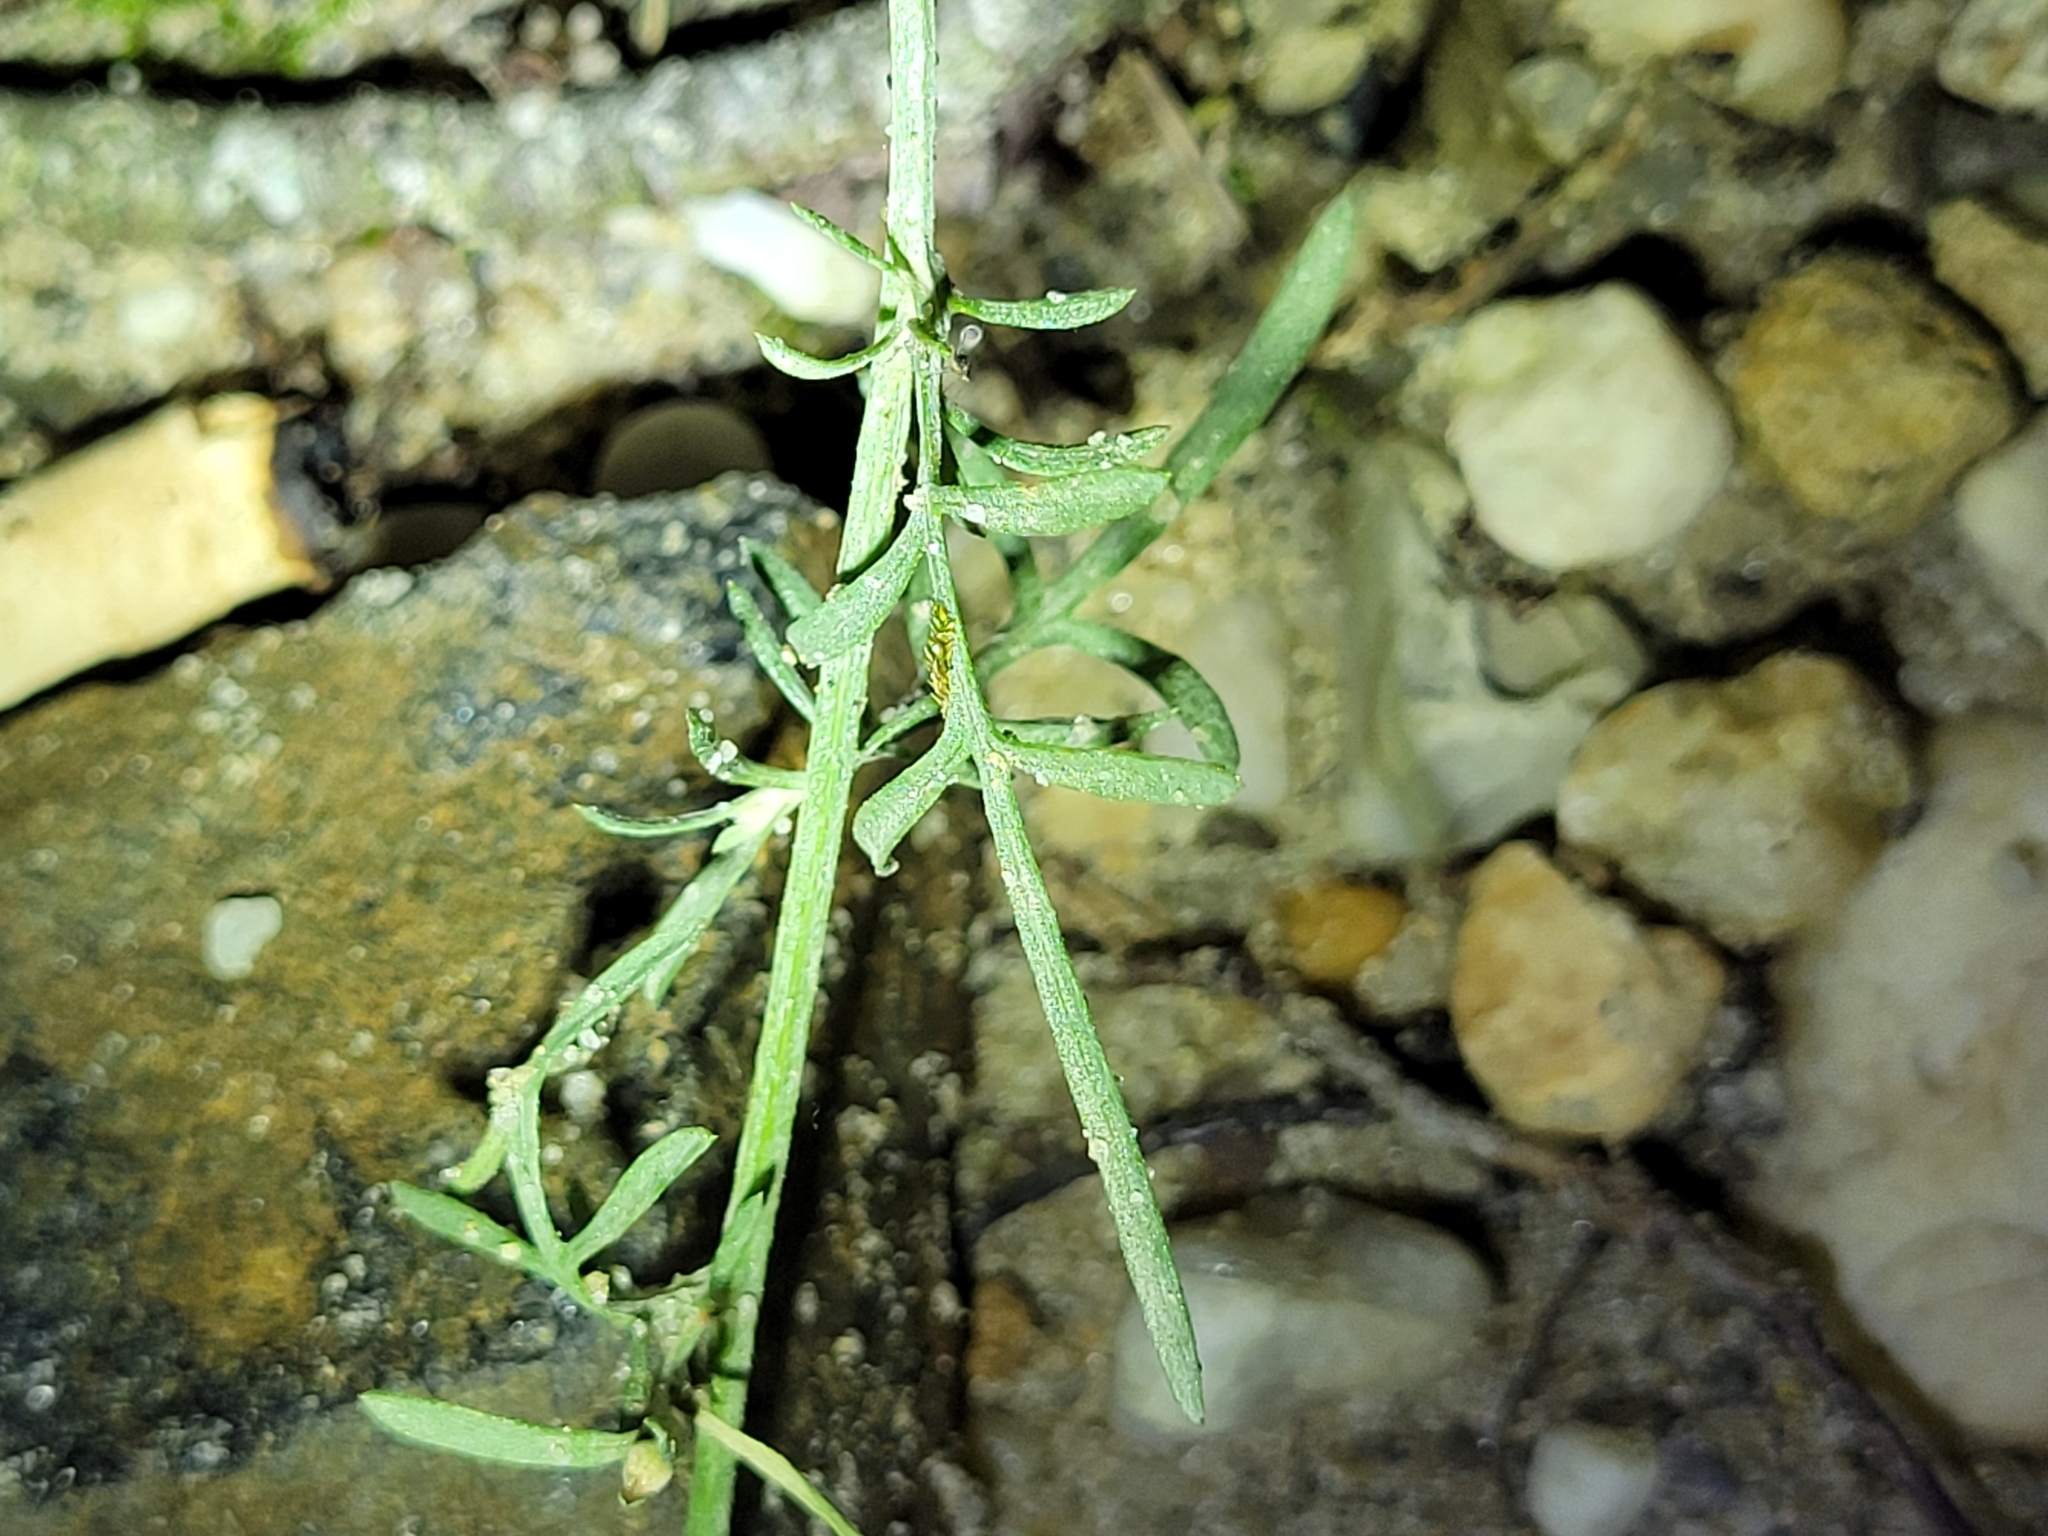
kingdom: Plantae
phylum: Tracheophyta
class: Magnoliopsida
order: Asterales
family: Asteraceae
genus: Centaurea
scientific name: Centaurea stoebe
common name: Spotted knapweed
